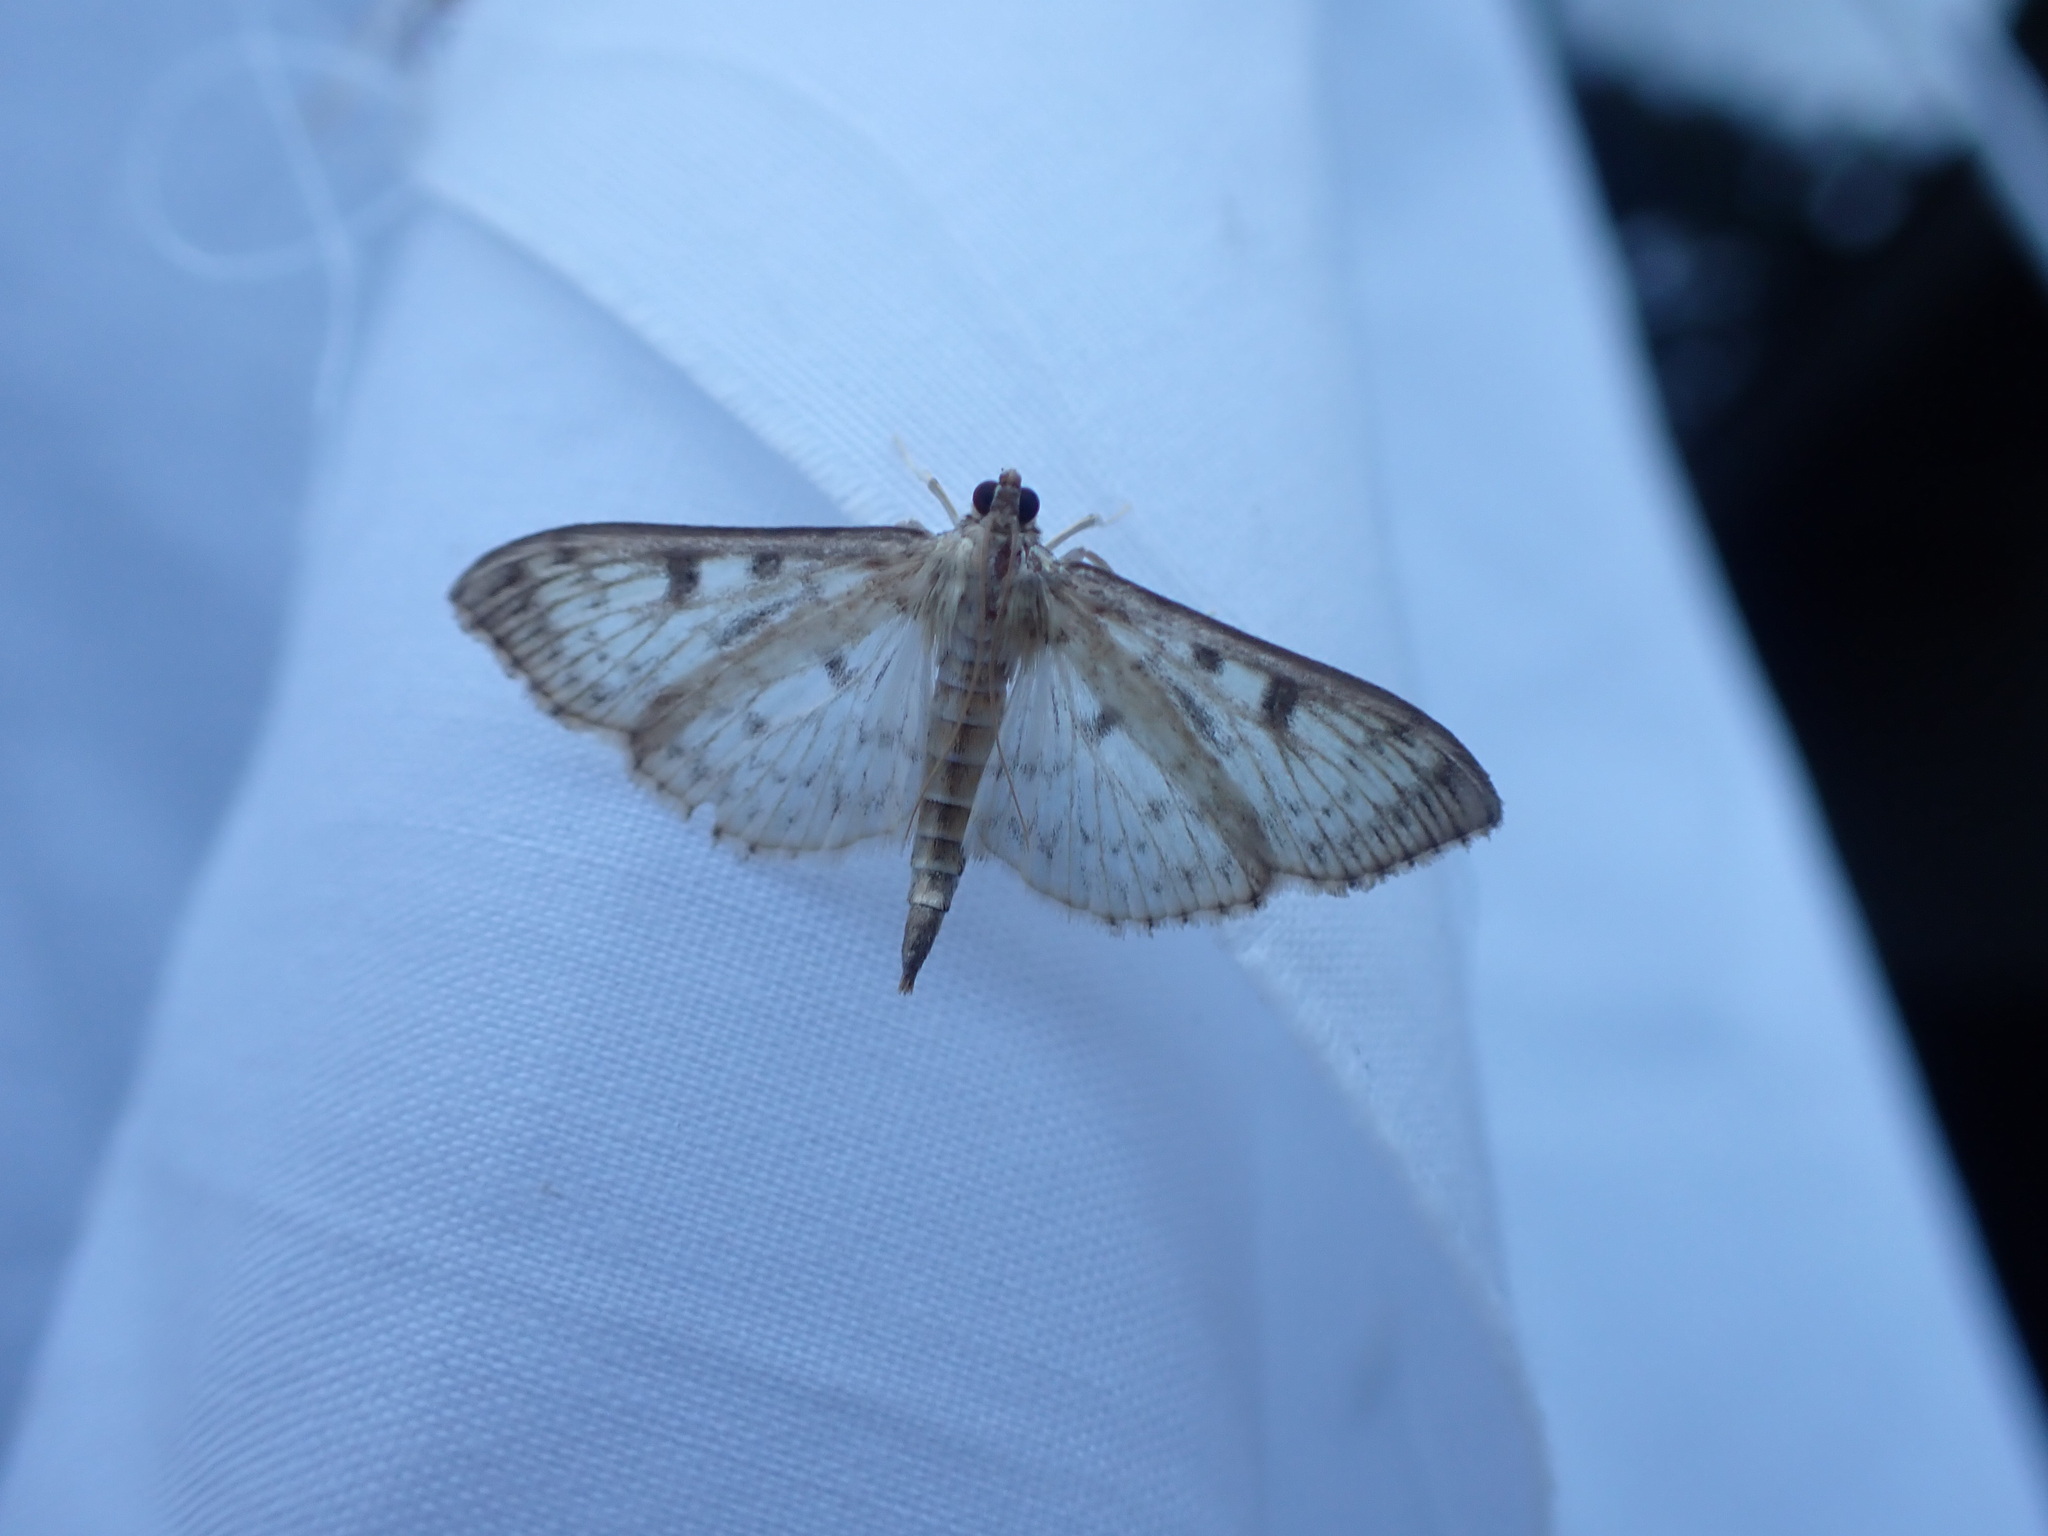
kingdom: Animalia
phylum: Arthropoda
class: Insecta
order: Lepidoptera
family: Crambidae
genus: Herpetogramma
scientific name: Herpetogramma aquilonalis
